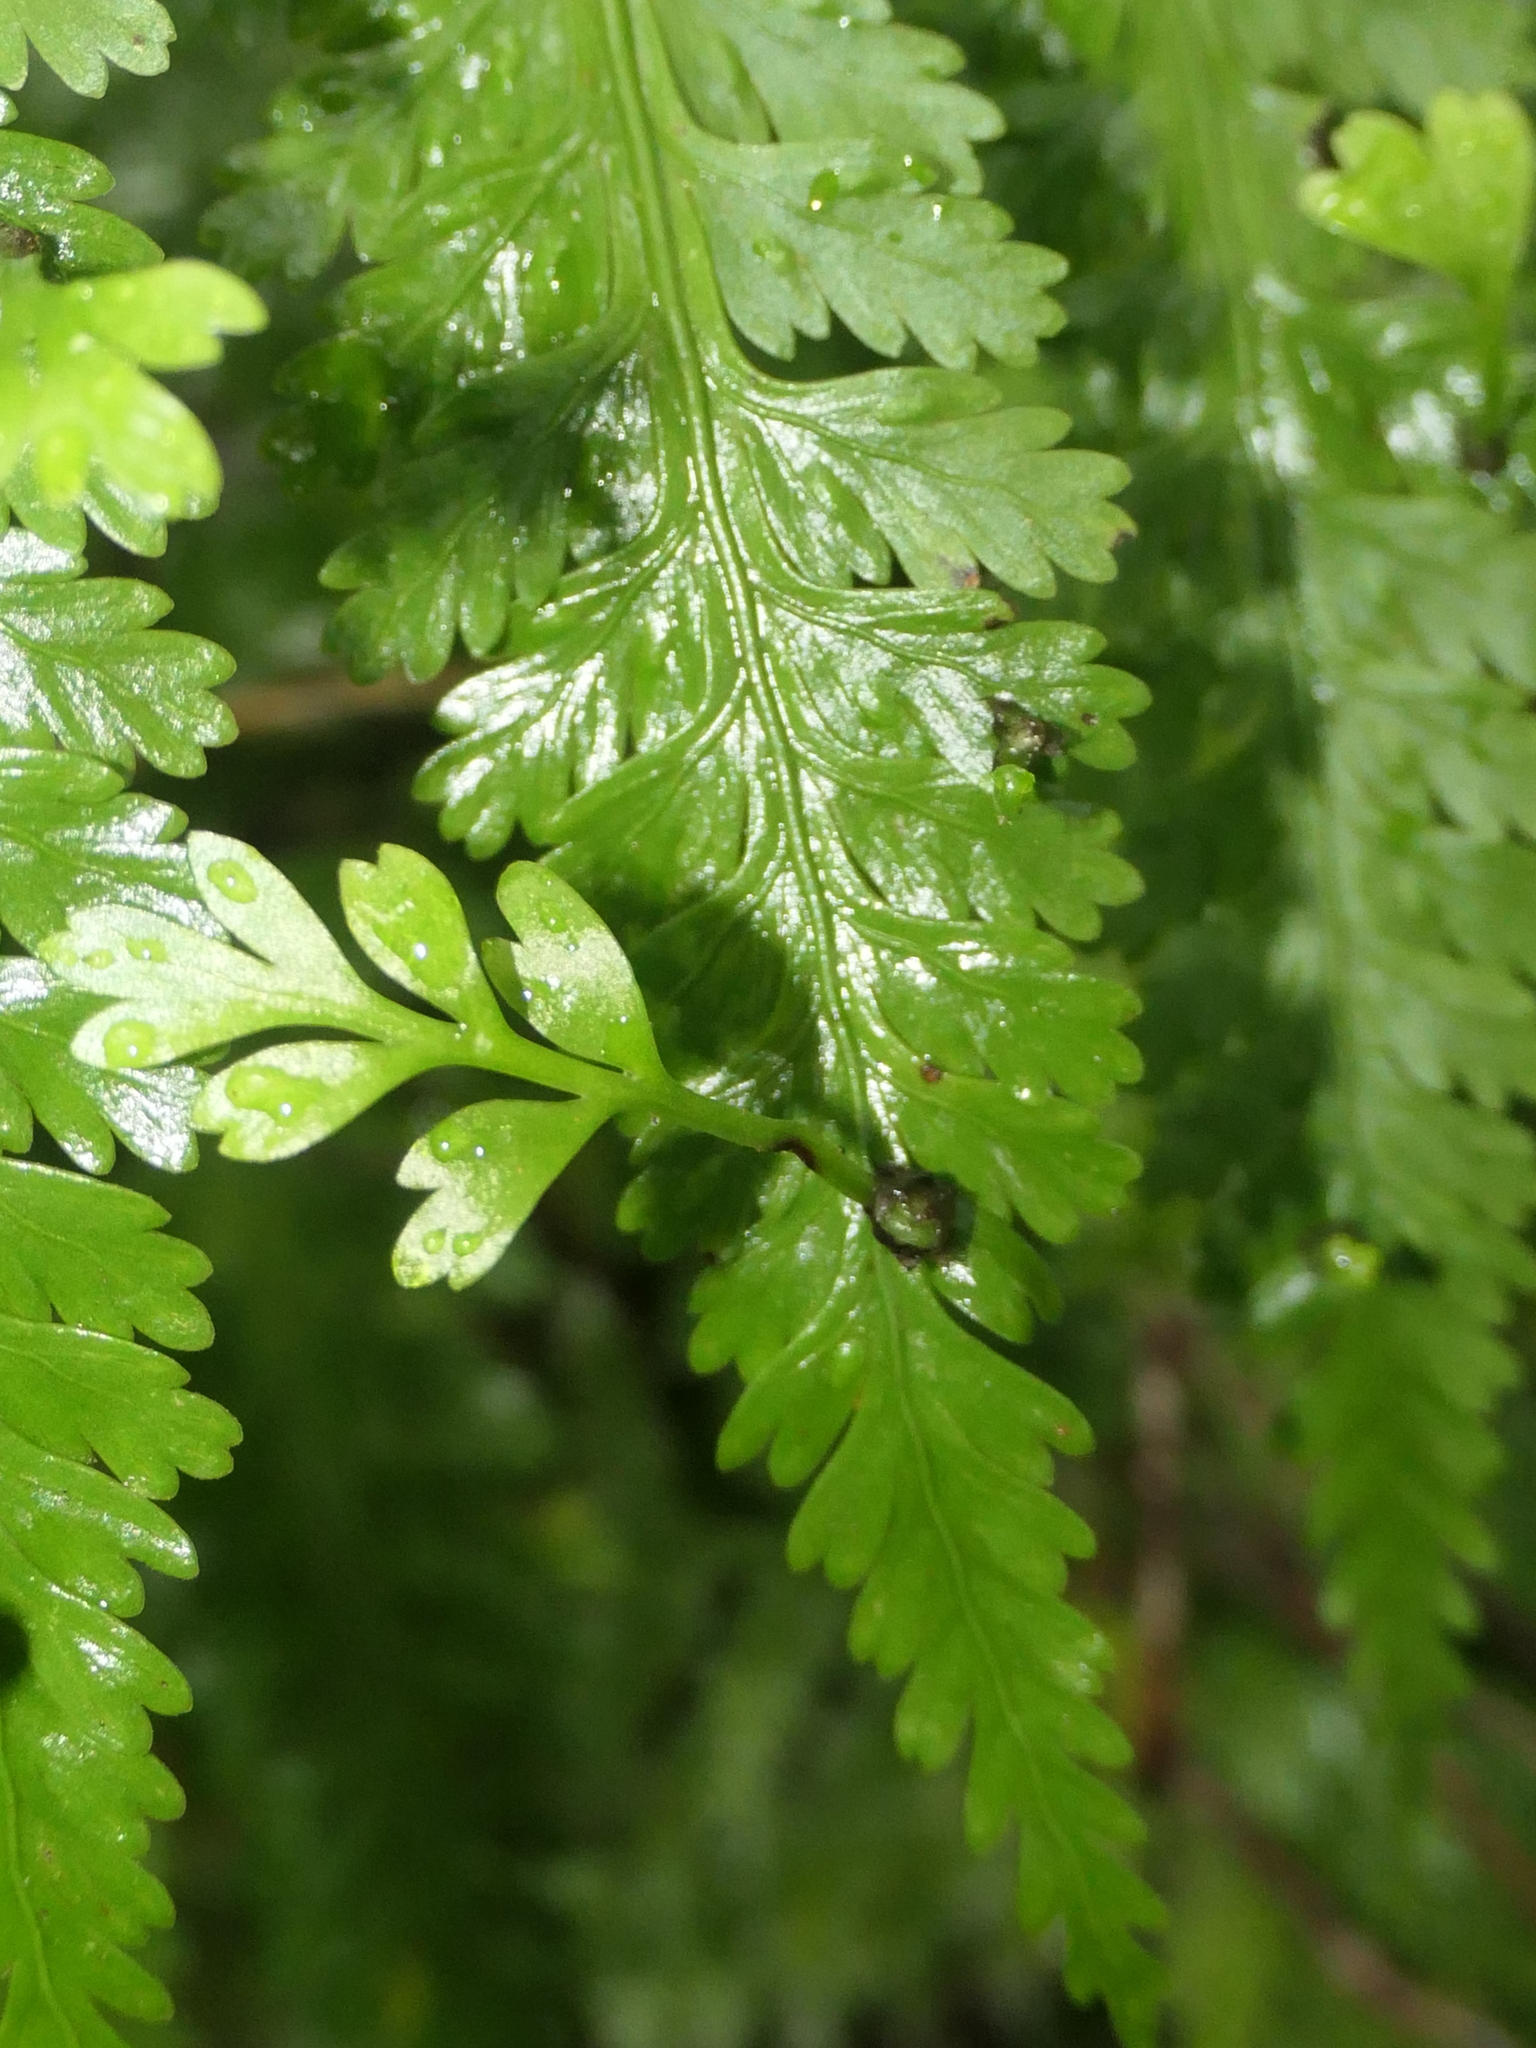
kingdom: Plantae
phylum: Tracheophyta
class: Polypodiopsida
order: Polypodiales
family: Aspleniaceae
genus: Asplenium
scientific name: Asplenium bulbiferum
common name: Mother fern
